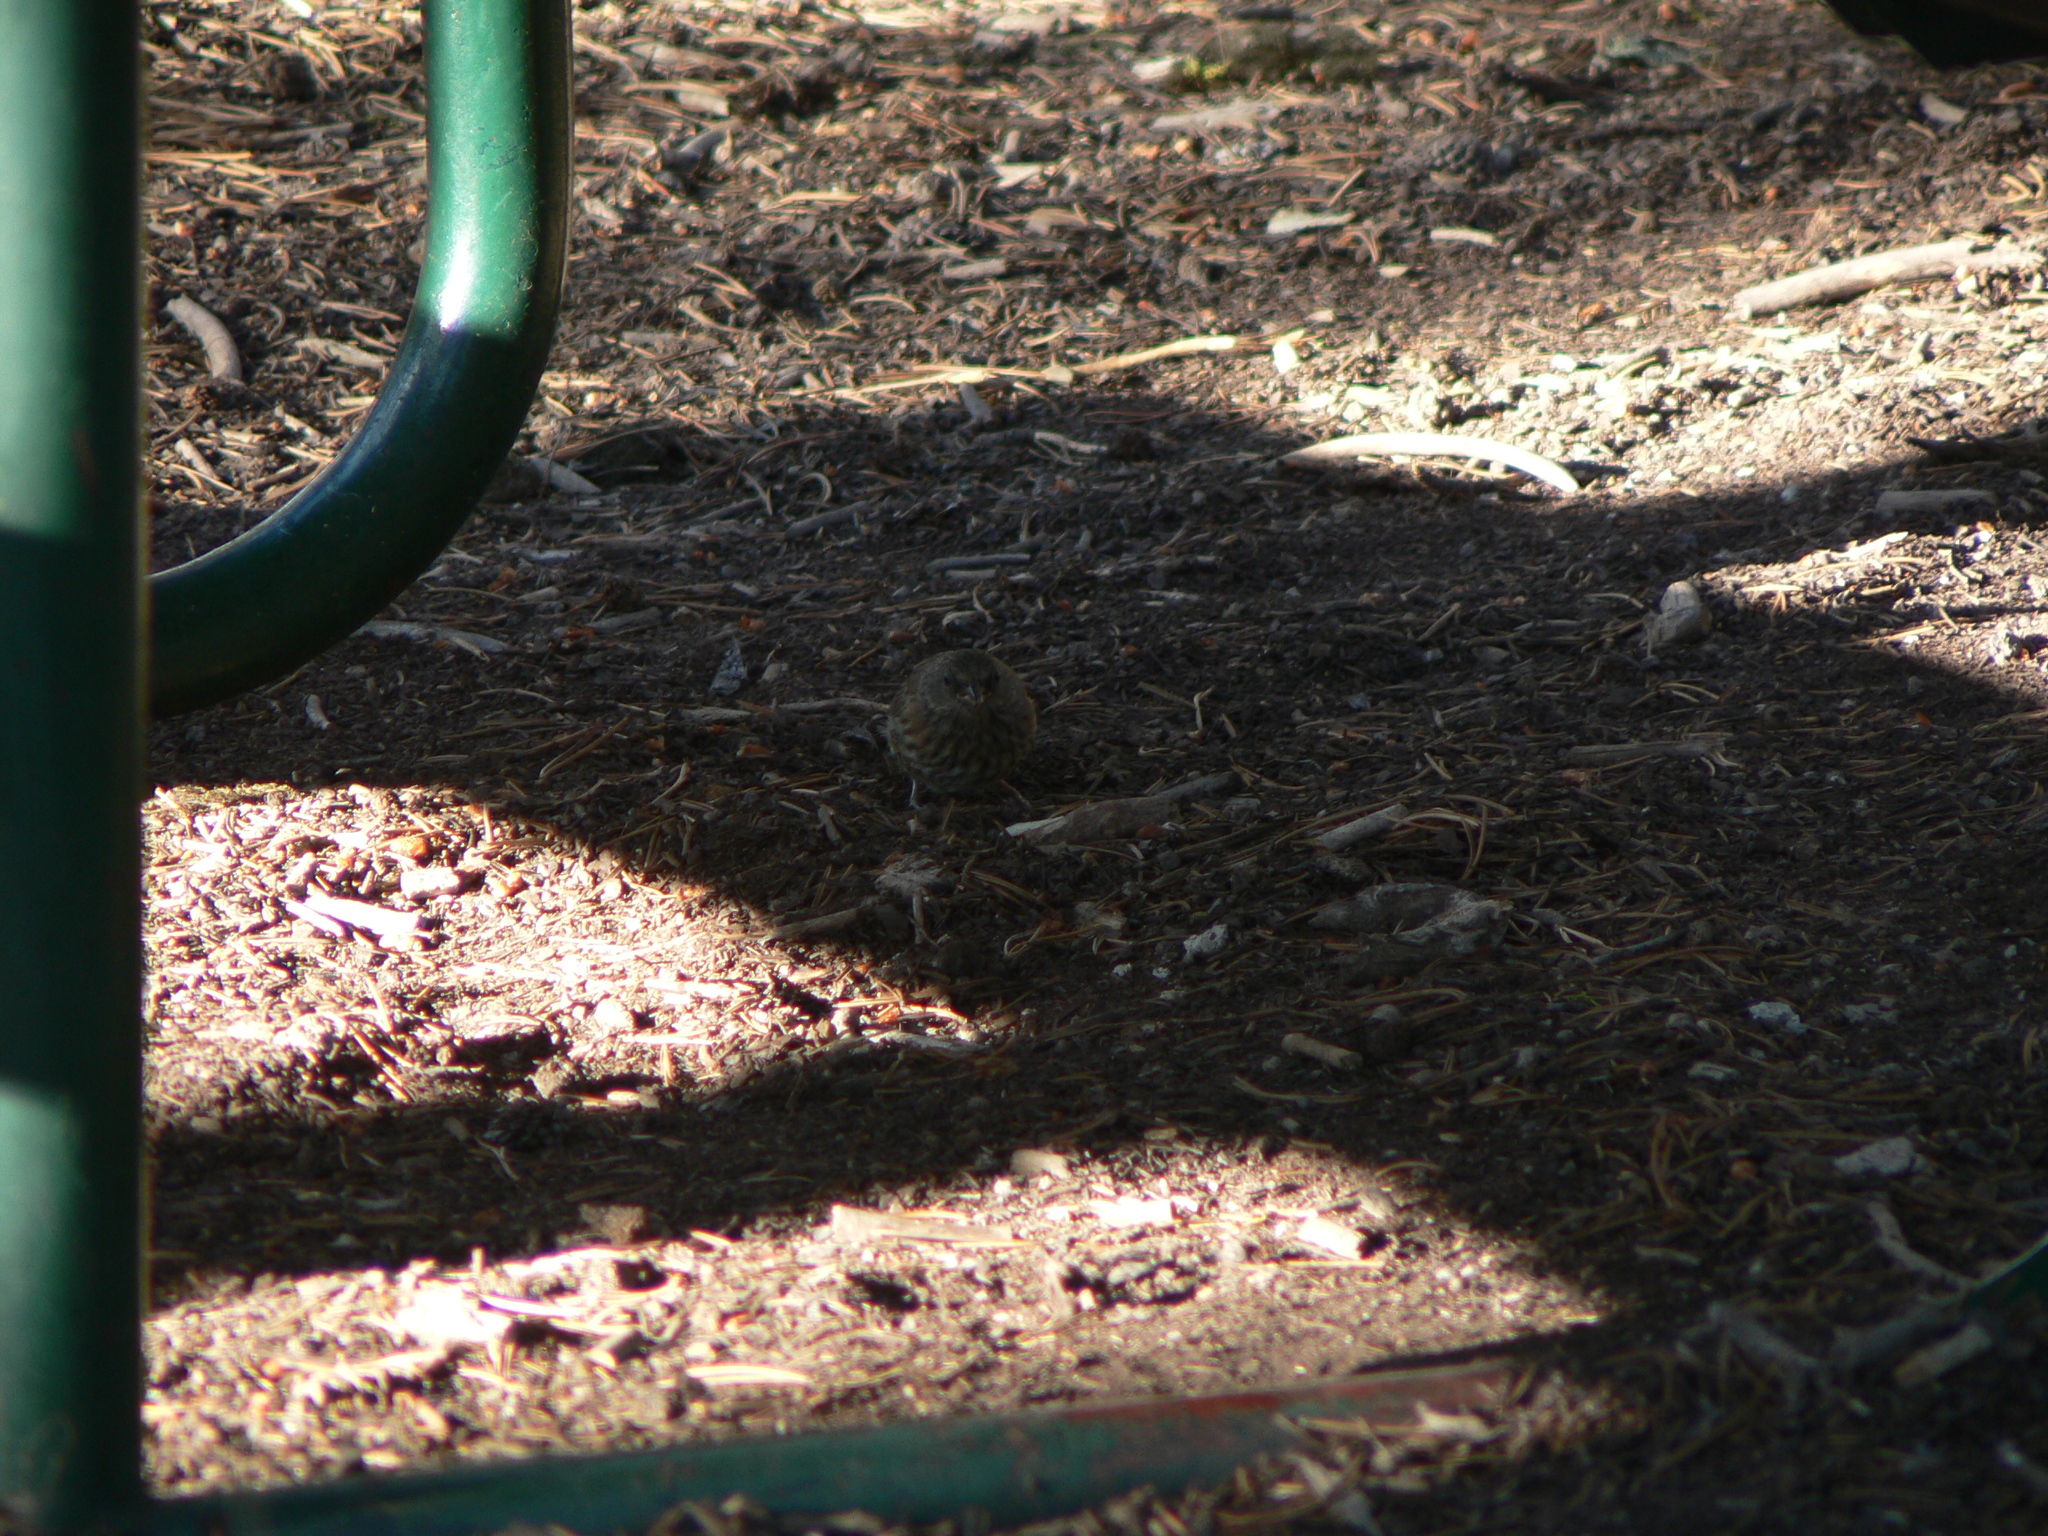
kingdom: Animalia
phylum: Chordata
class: Aves
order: Passeriformes
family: Passerellidae
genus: Junco
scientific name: Junco hyemalis
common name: Dark-eyed junco
